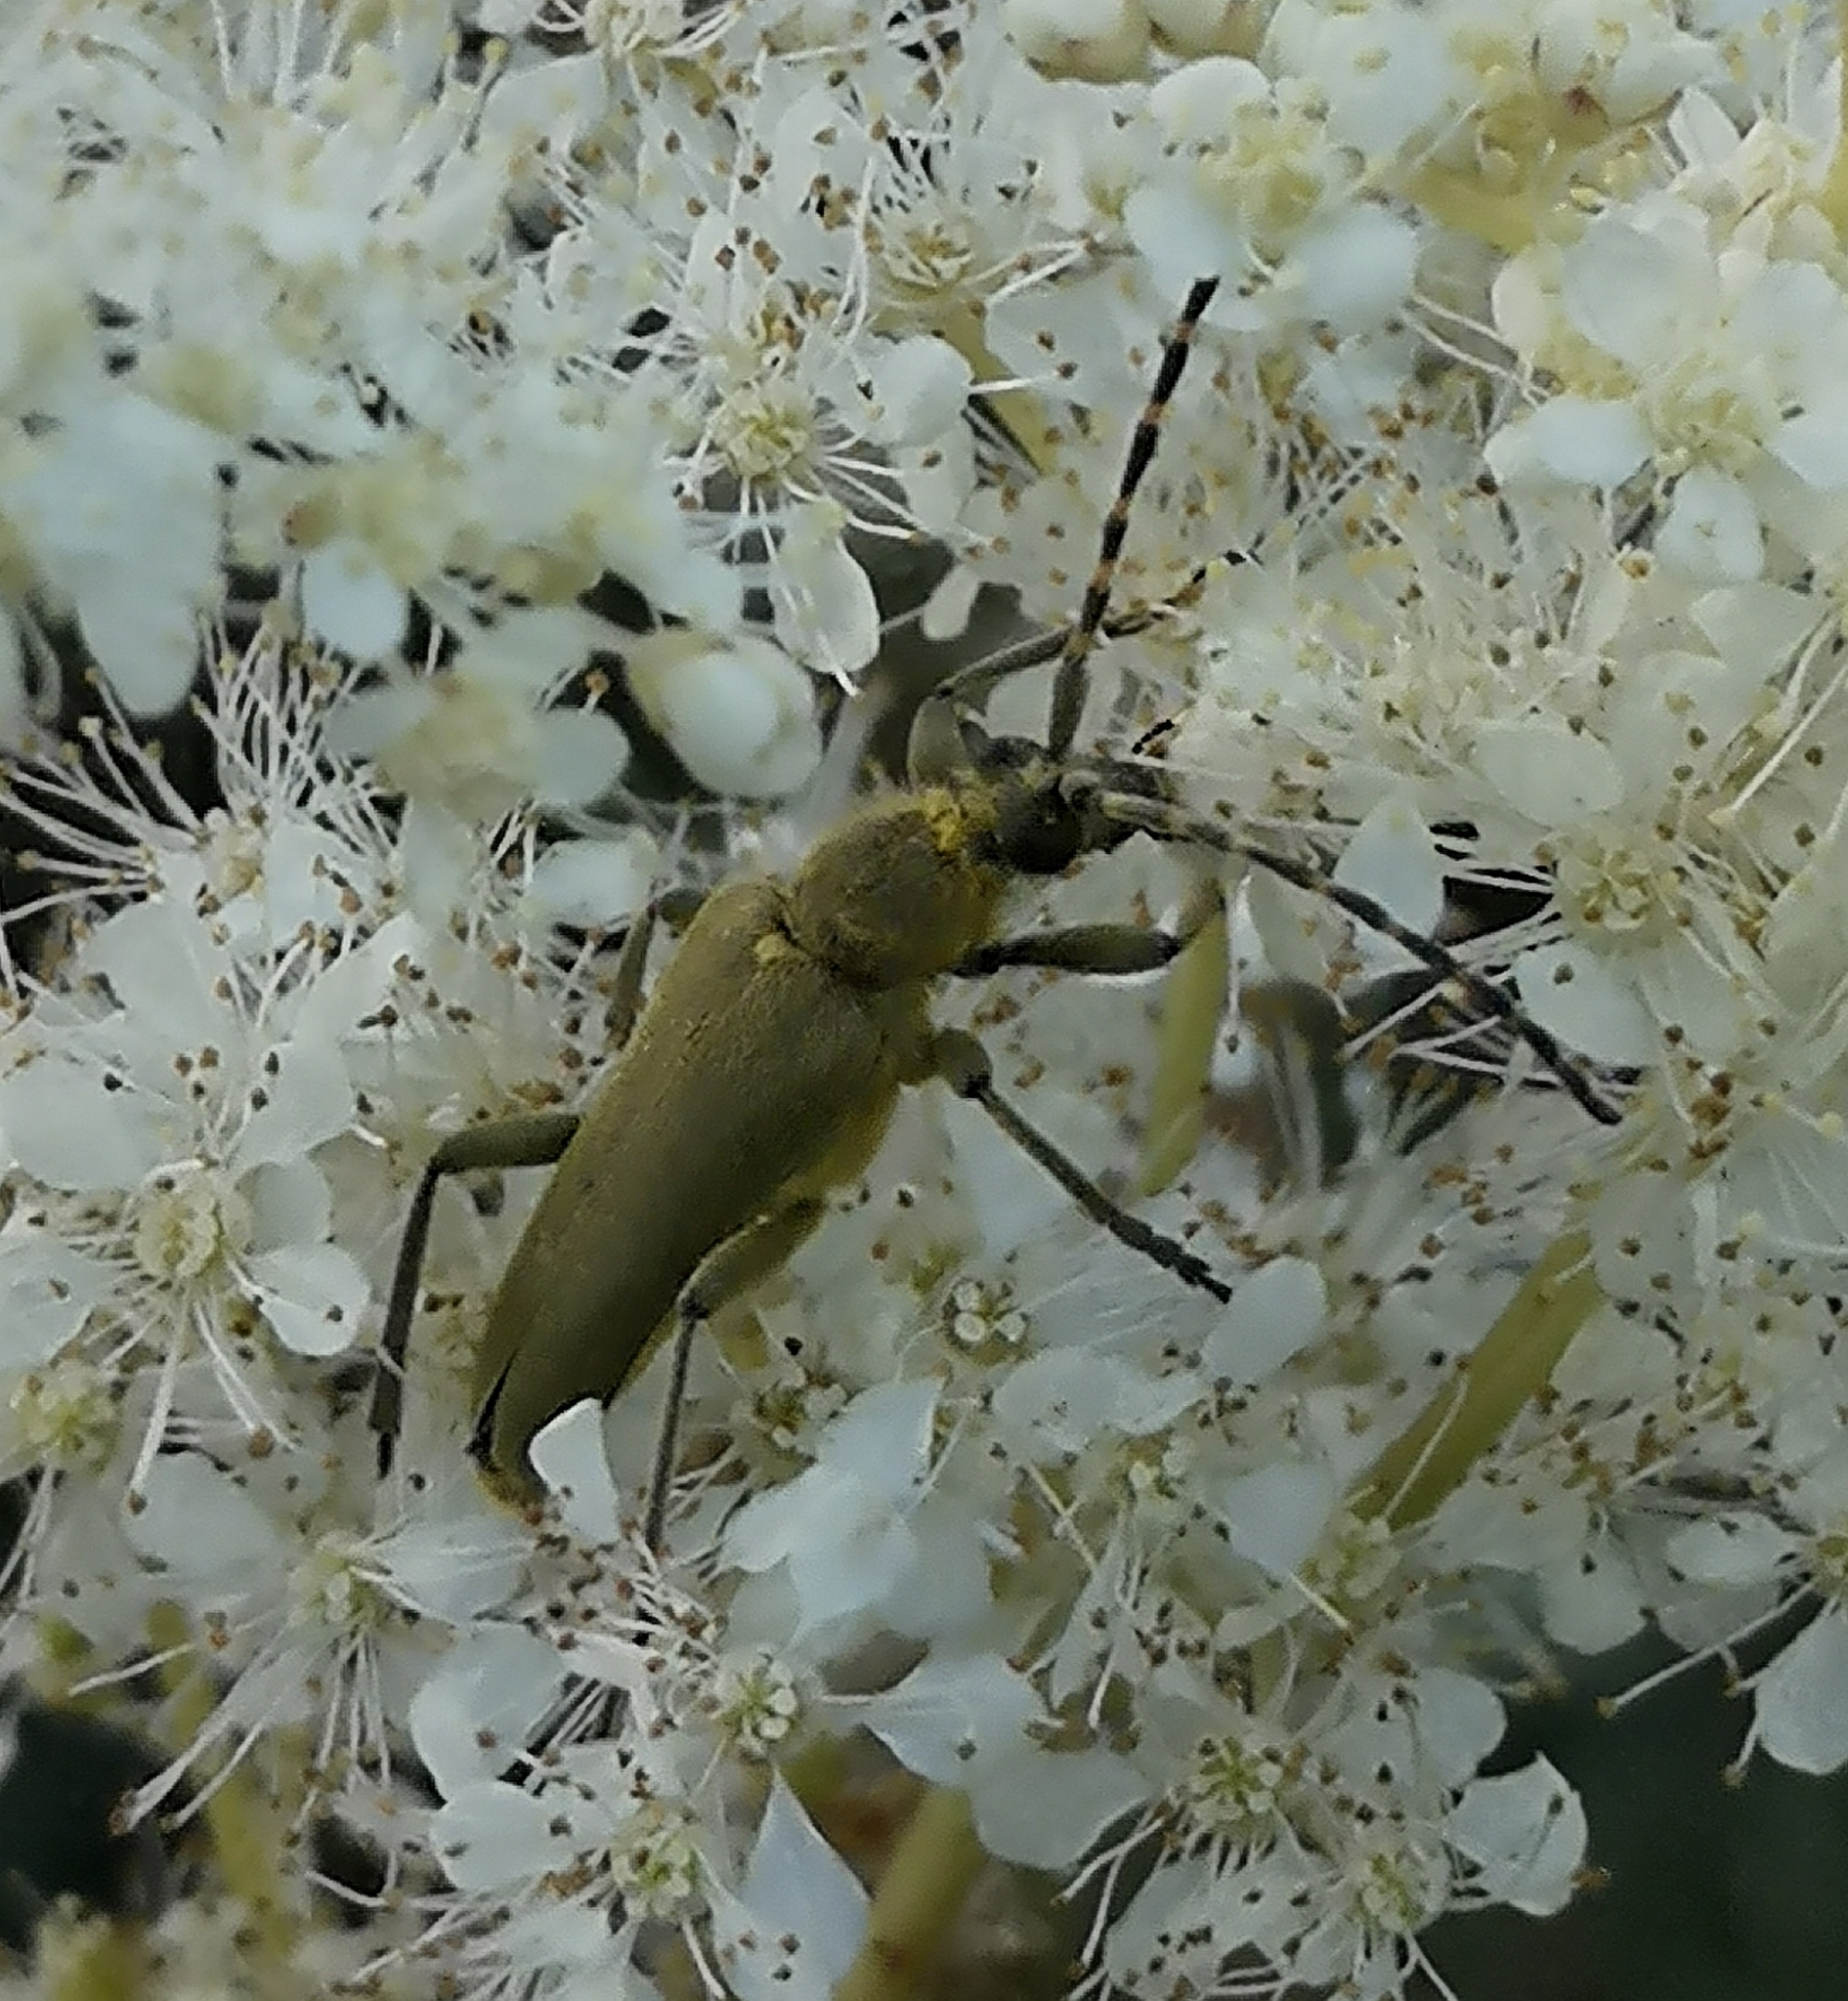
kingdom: Animalia
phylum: Arthropoda
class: Insecta
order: Coleoptera
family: Cerambycidae
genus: Lepturobosca
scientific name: Lepturobosca virens
